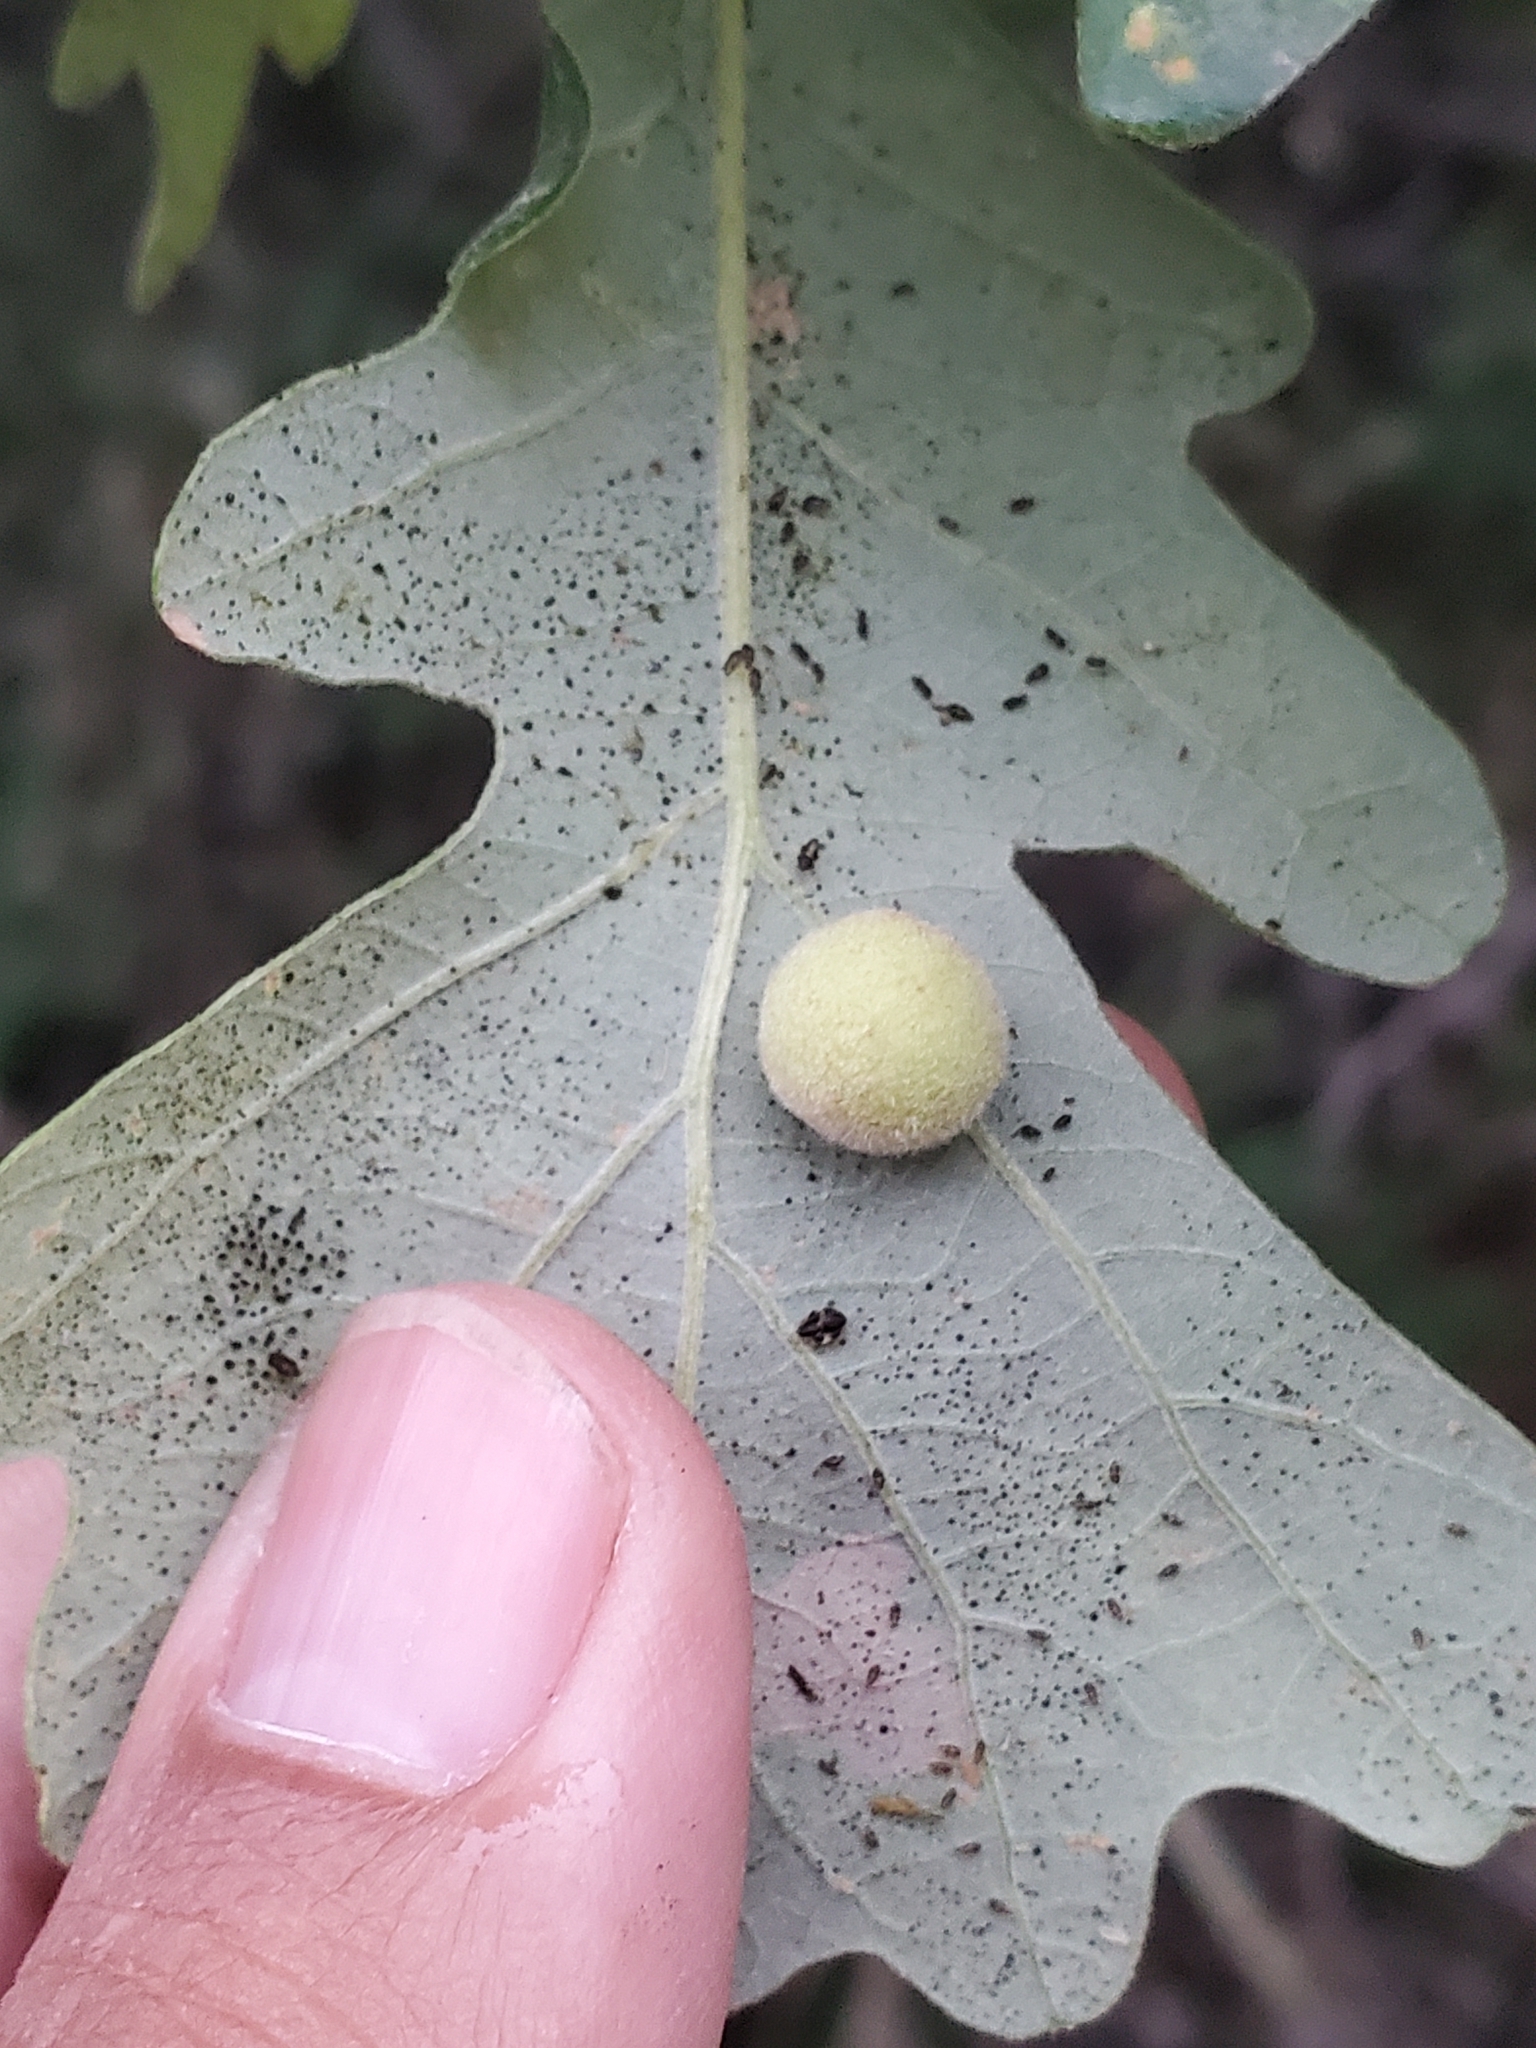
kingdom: Animalia
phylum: Arthropoda
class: Insecta
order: Hymenoptera
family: Cynipidae
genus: Philonix
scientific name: Philonix fulvicollis
